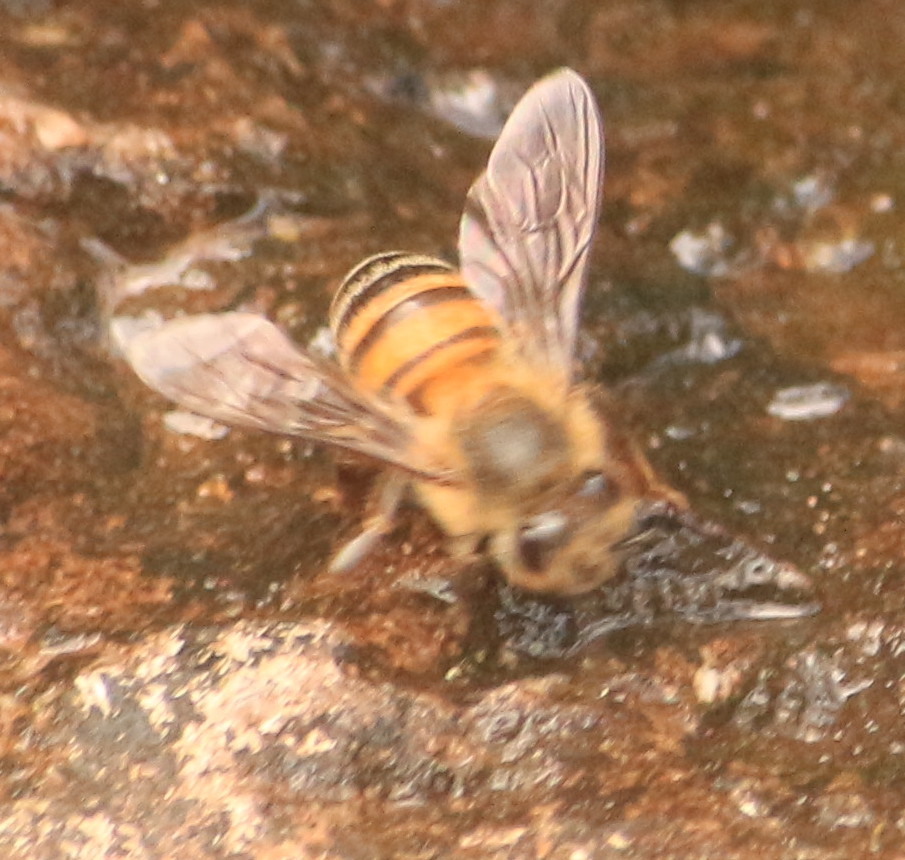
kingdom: Animalia
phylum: Arthropoda
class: Insecta
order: Hymenoptera
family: Apidae
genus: Apis
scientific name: Apis mellifera
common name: Honey bee
